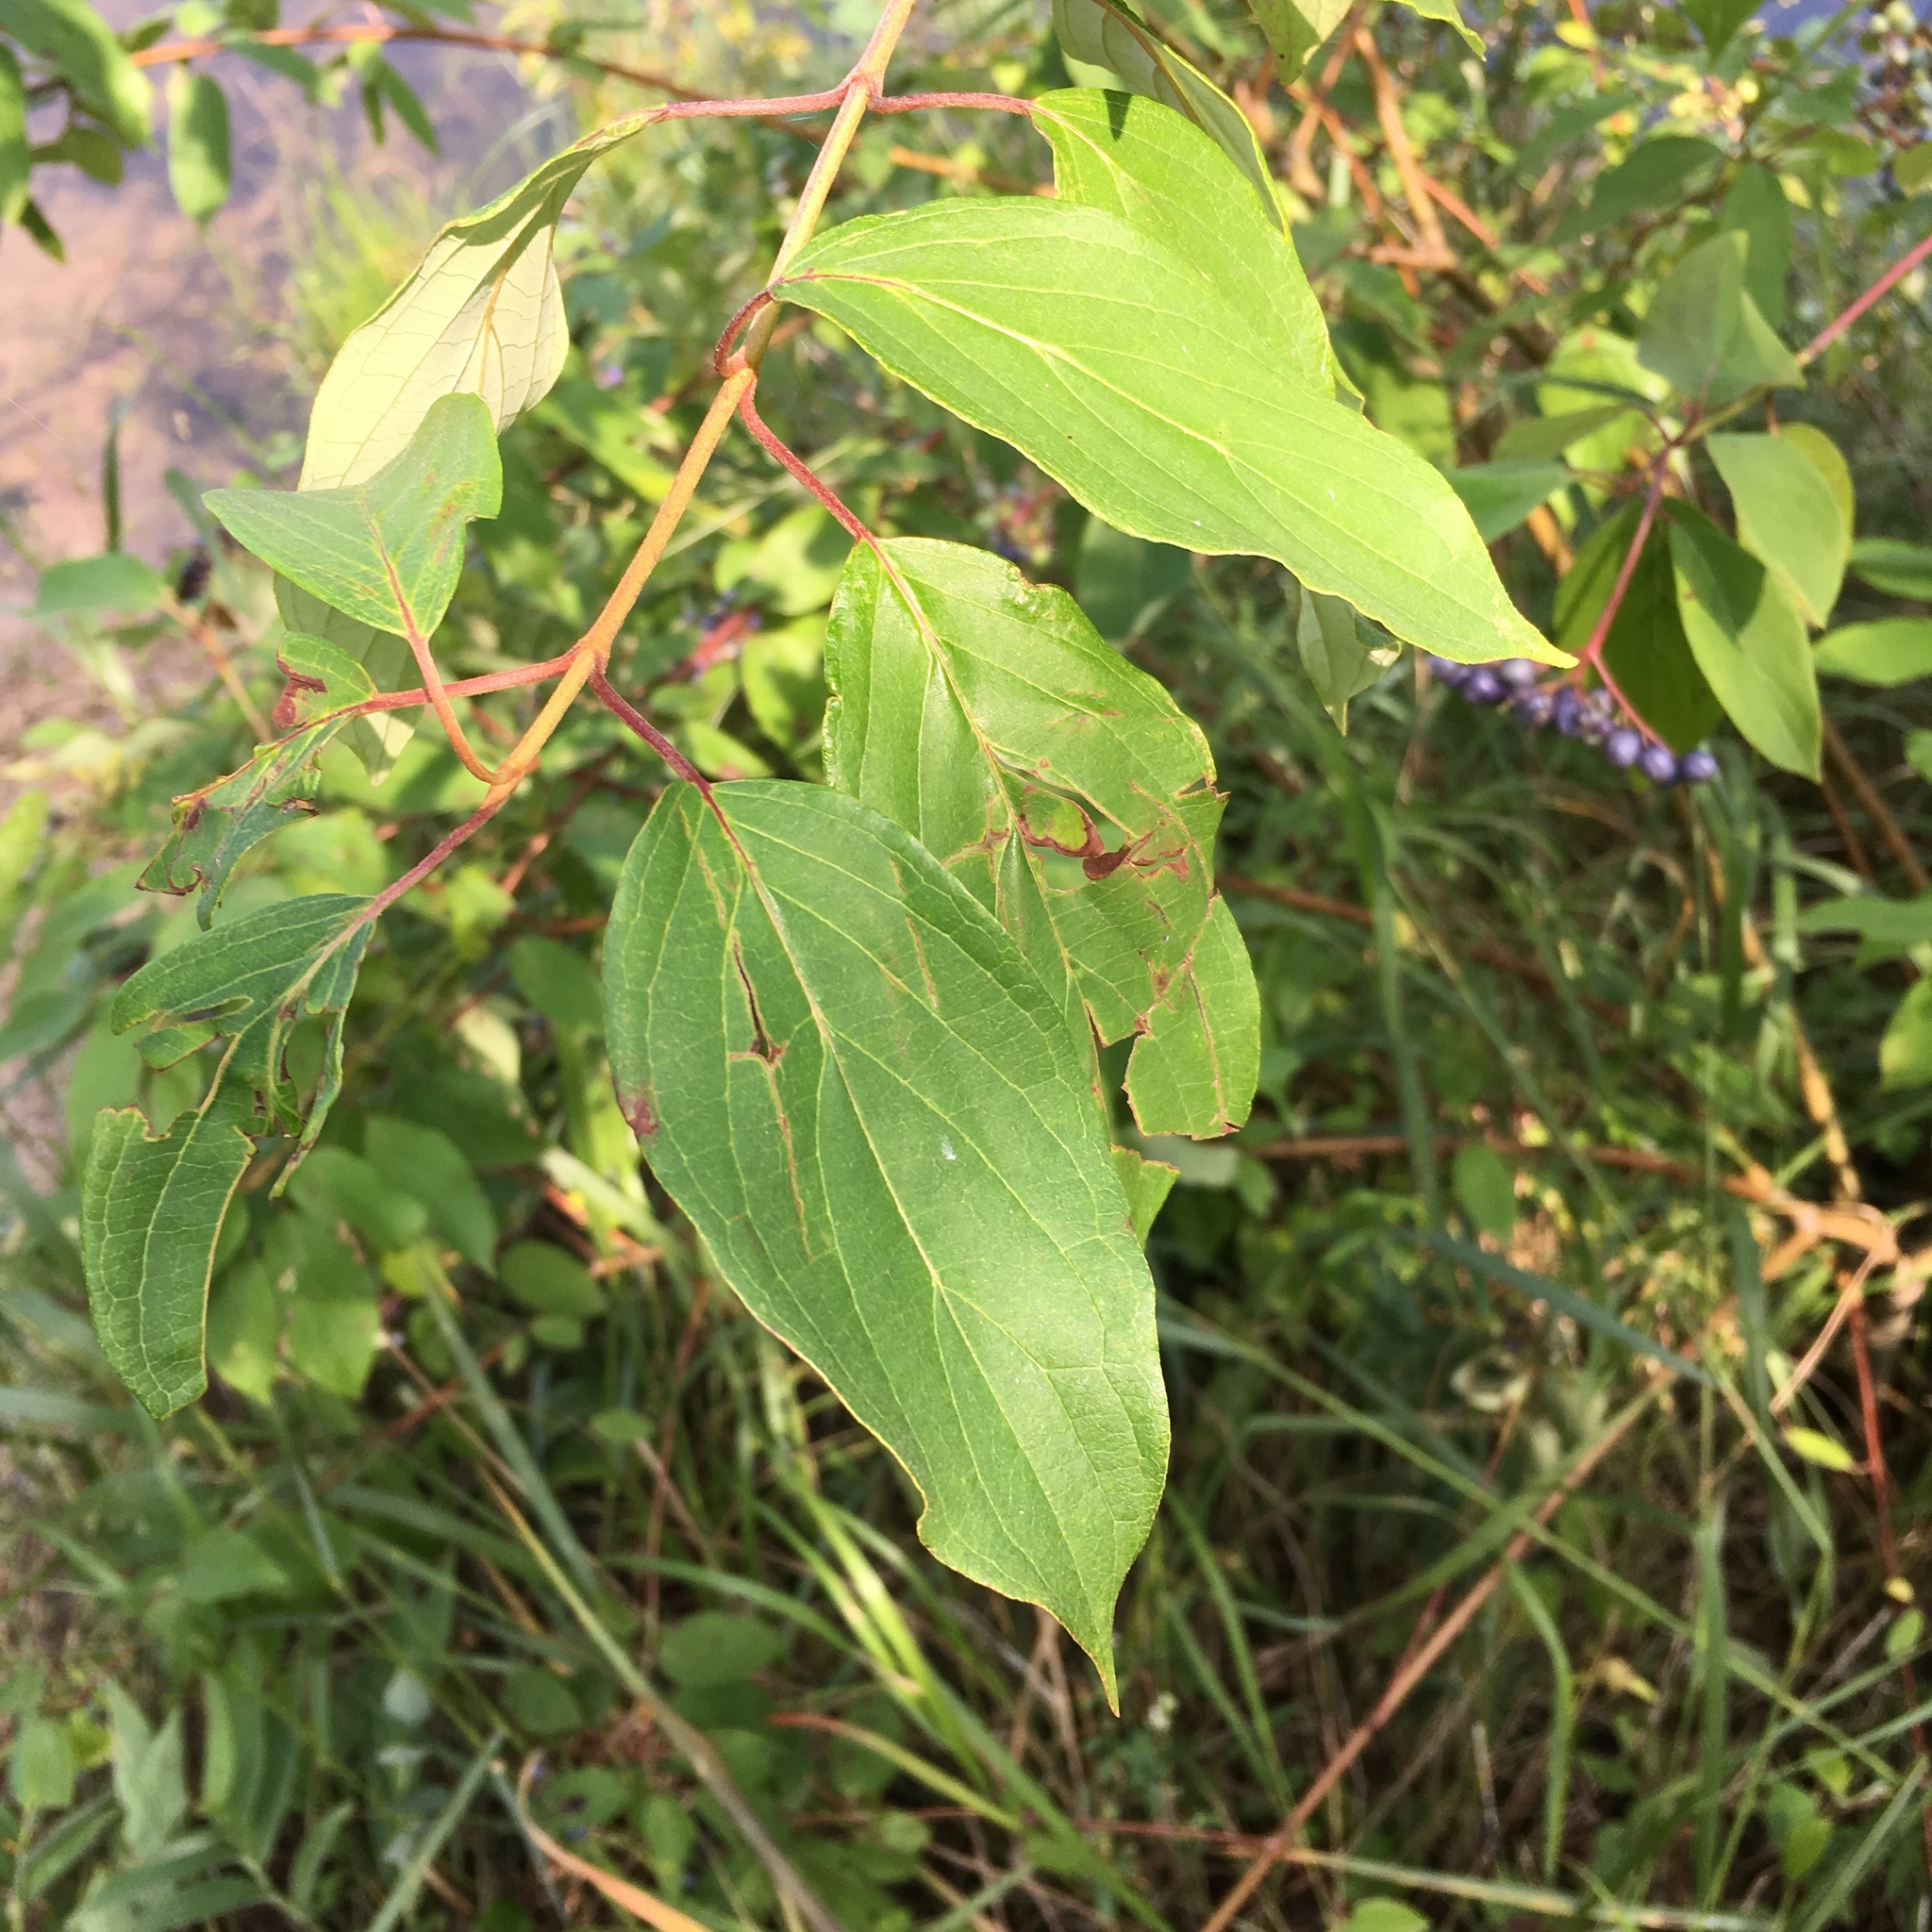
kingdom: Plantae
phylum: Tracheophyta
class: Magnoliopsida
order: Cornales
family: Cornaceae
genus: Cornus
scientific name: Cornus amomum
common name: Silky dogwood
